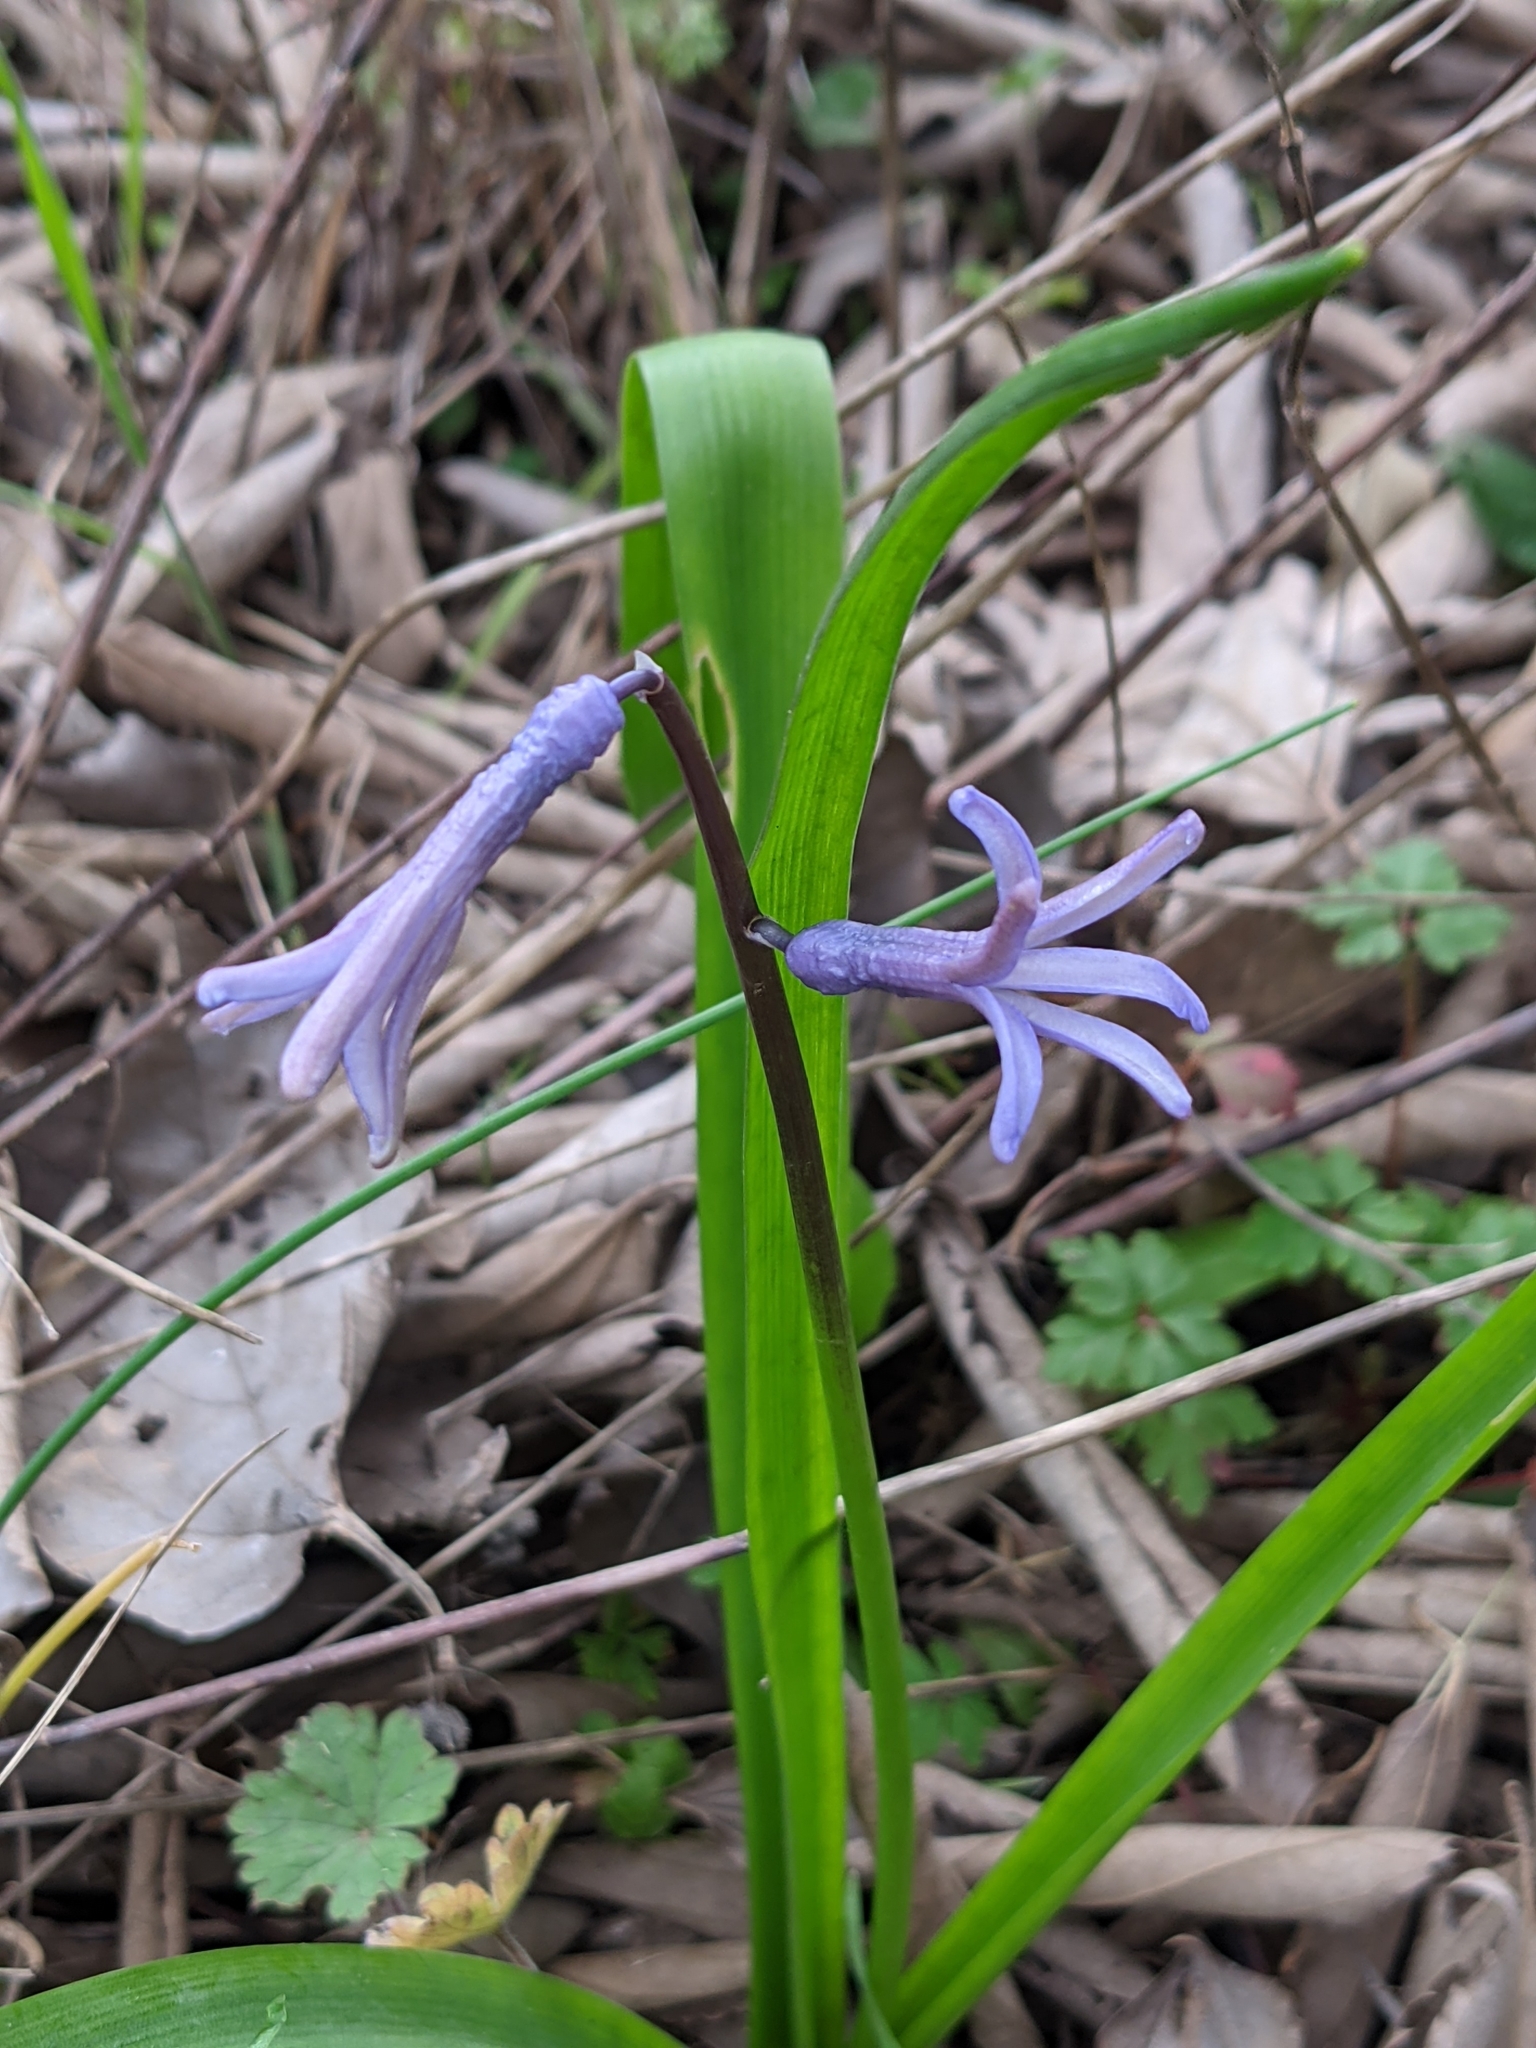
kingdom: Plantae
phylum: Tracheophyta
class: Liliopsida
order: Asparagales
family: Asparagaceae
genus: Hyacinthus
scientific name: Hyacinthus orientalis
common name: Hyacinth
